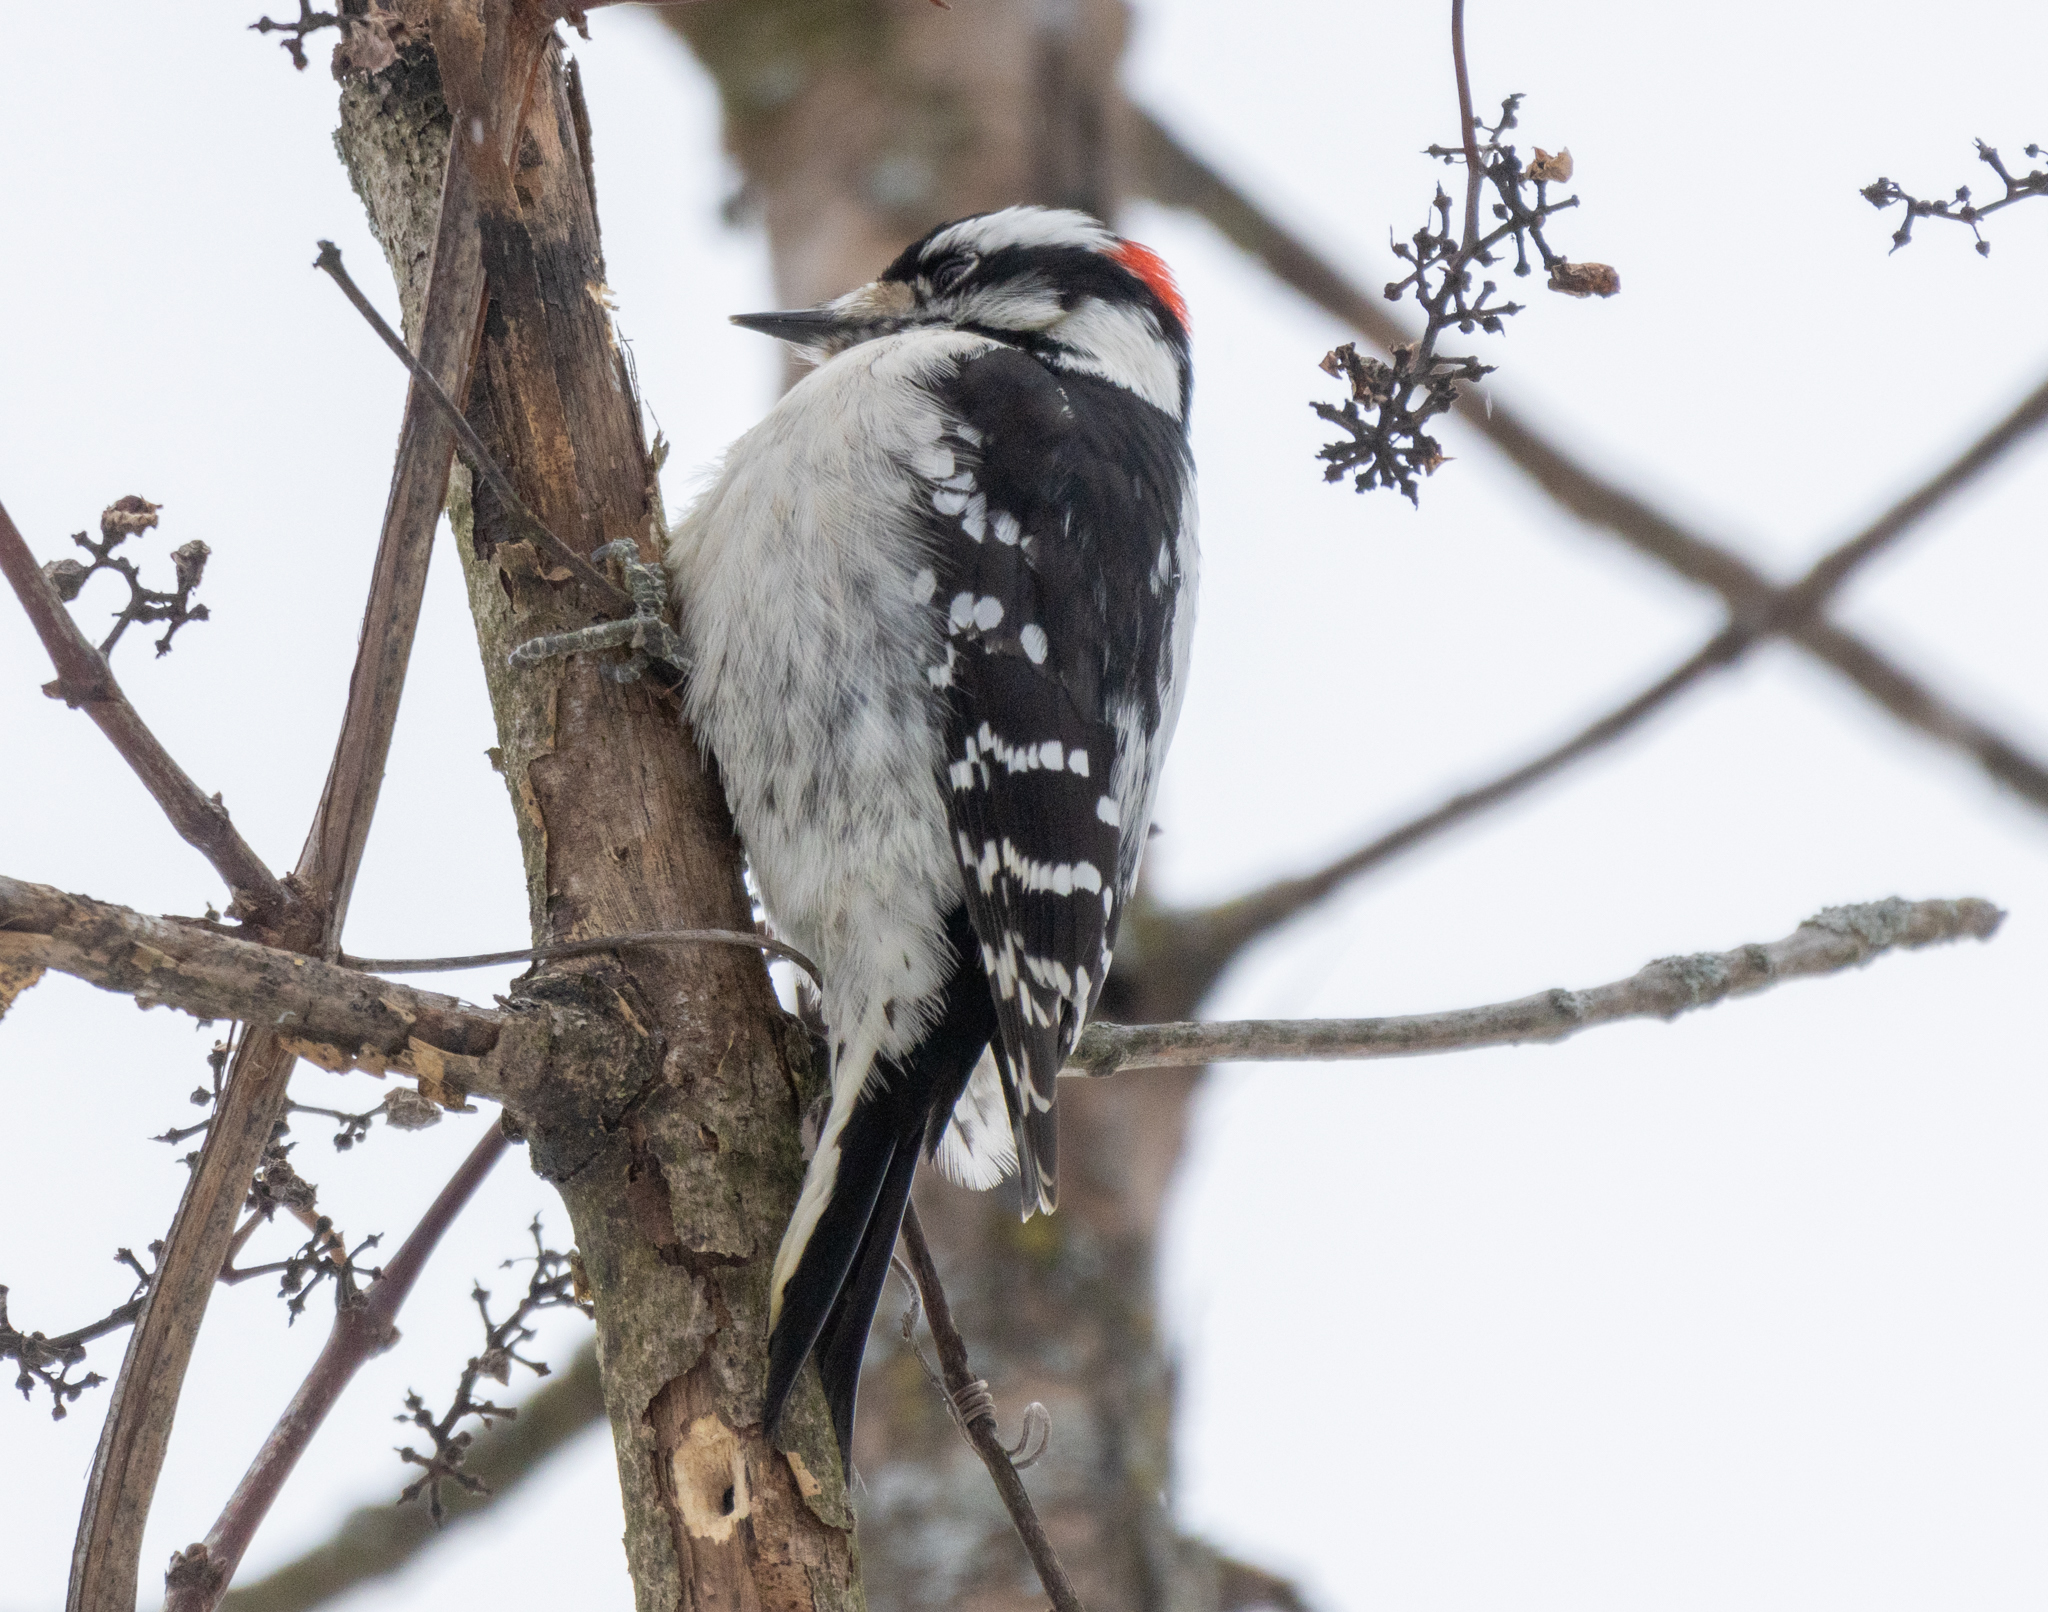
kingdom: Animalia
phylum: Chordata
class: Aves
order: Piciformes
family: Picidae
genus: Dryobates
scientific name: Dryobates pubescens
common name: Downy woodpecker
